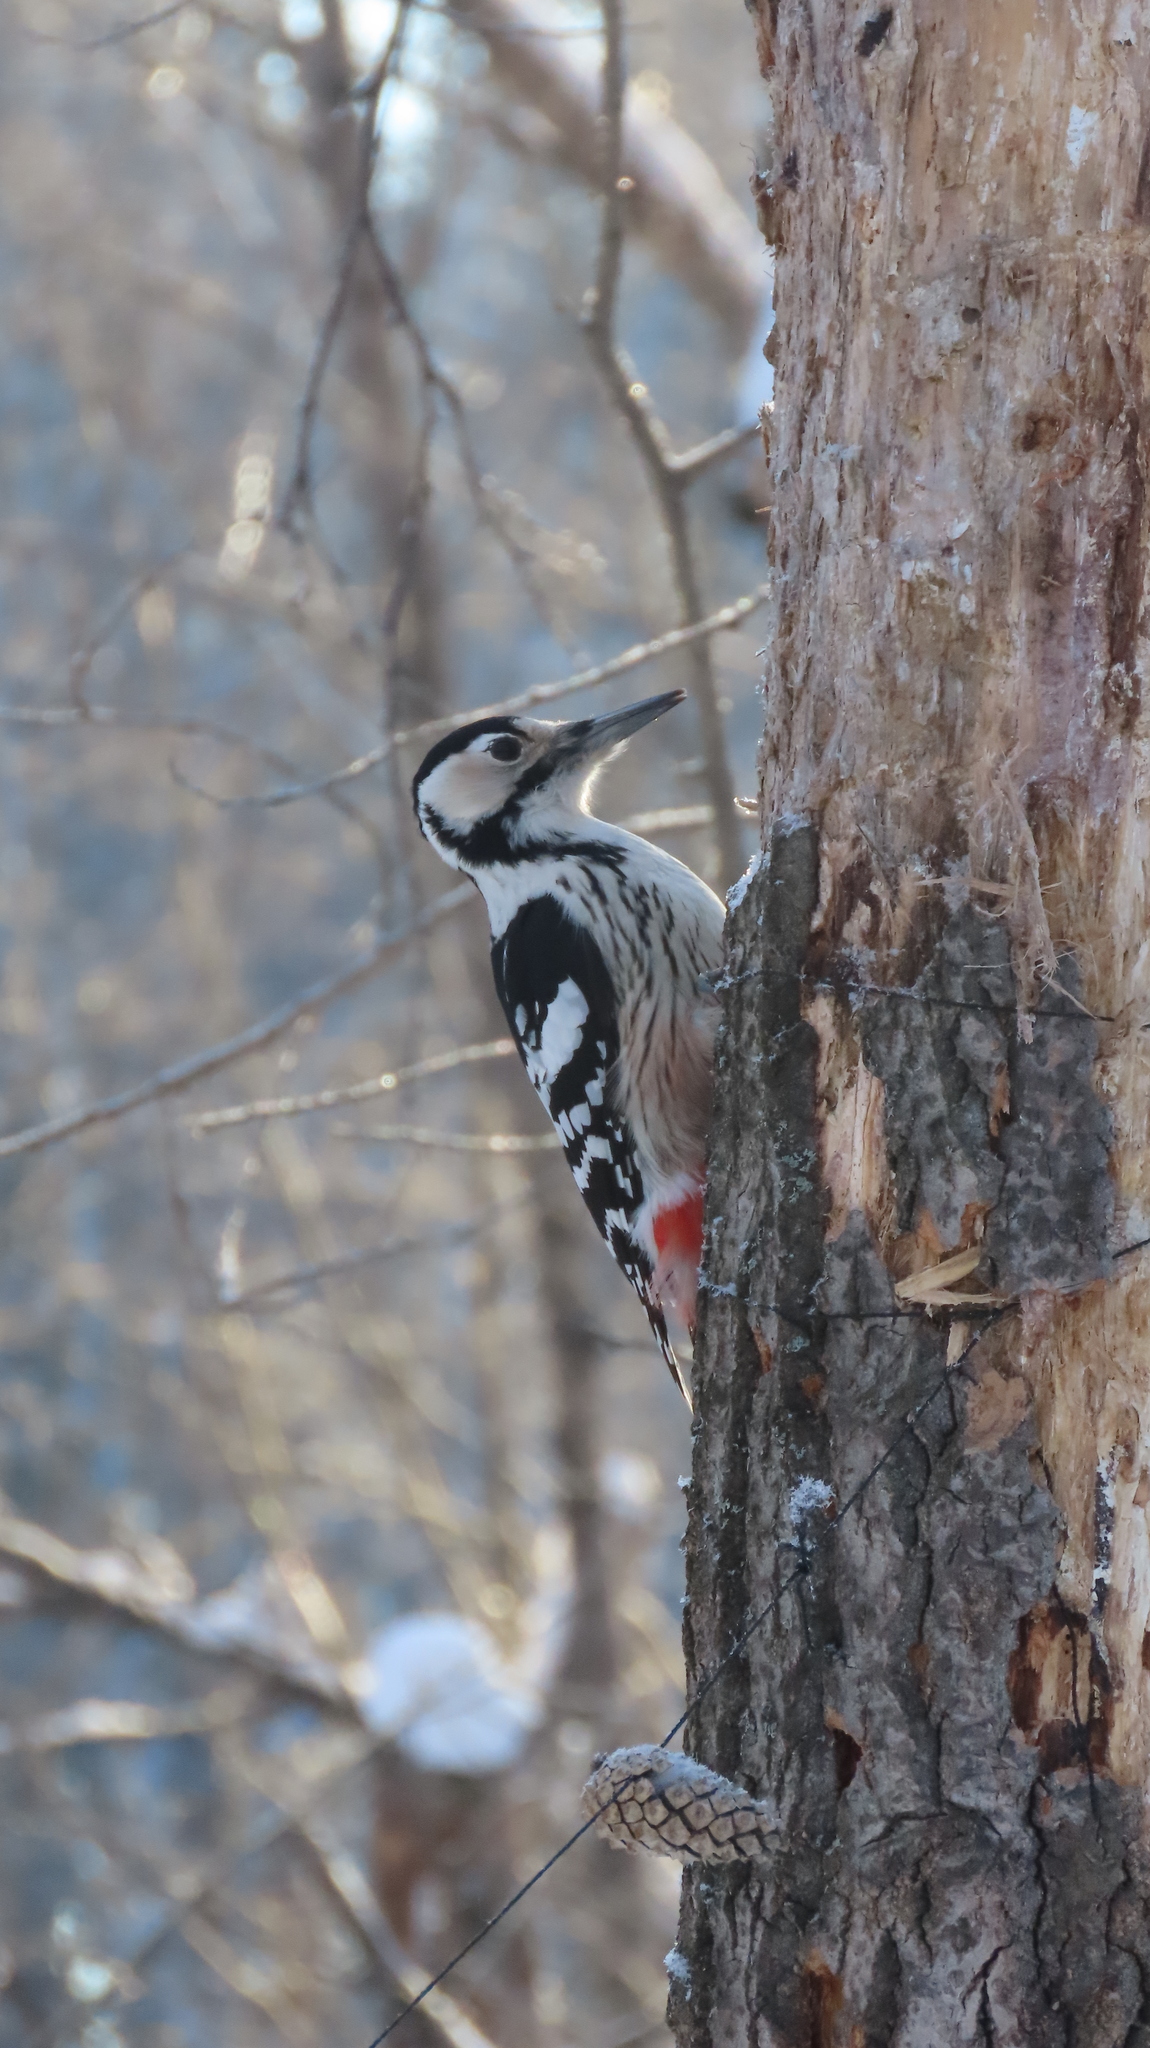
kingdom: Animalia
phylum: Chordata
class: Aves
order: Piciformes
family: Picidae
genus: Dendrocopos
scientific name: Dendrocopos leucotos
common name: White-backed woodpecker
